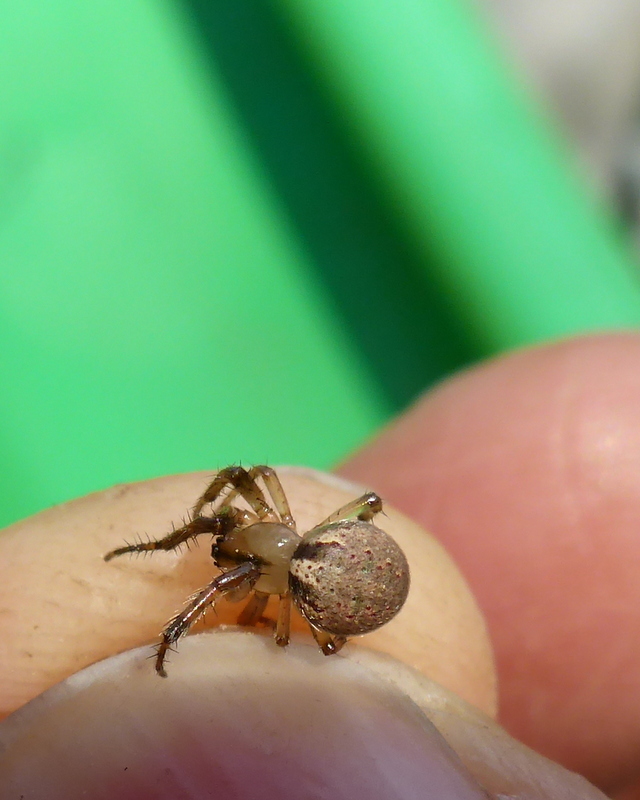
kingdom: Animalia
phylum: Arthropoda
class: Arachnida
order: Araneae
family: Araneidae
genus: Metazygia
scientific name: Metazygia zilloides
